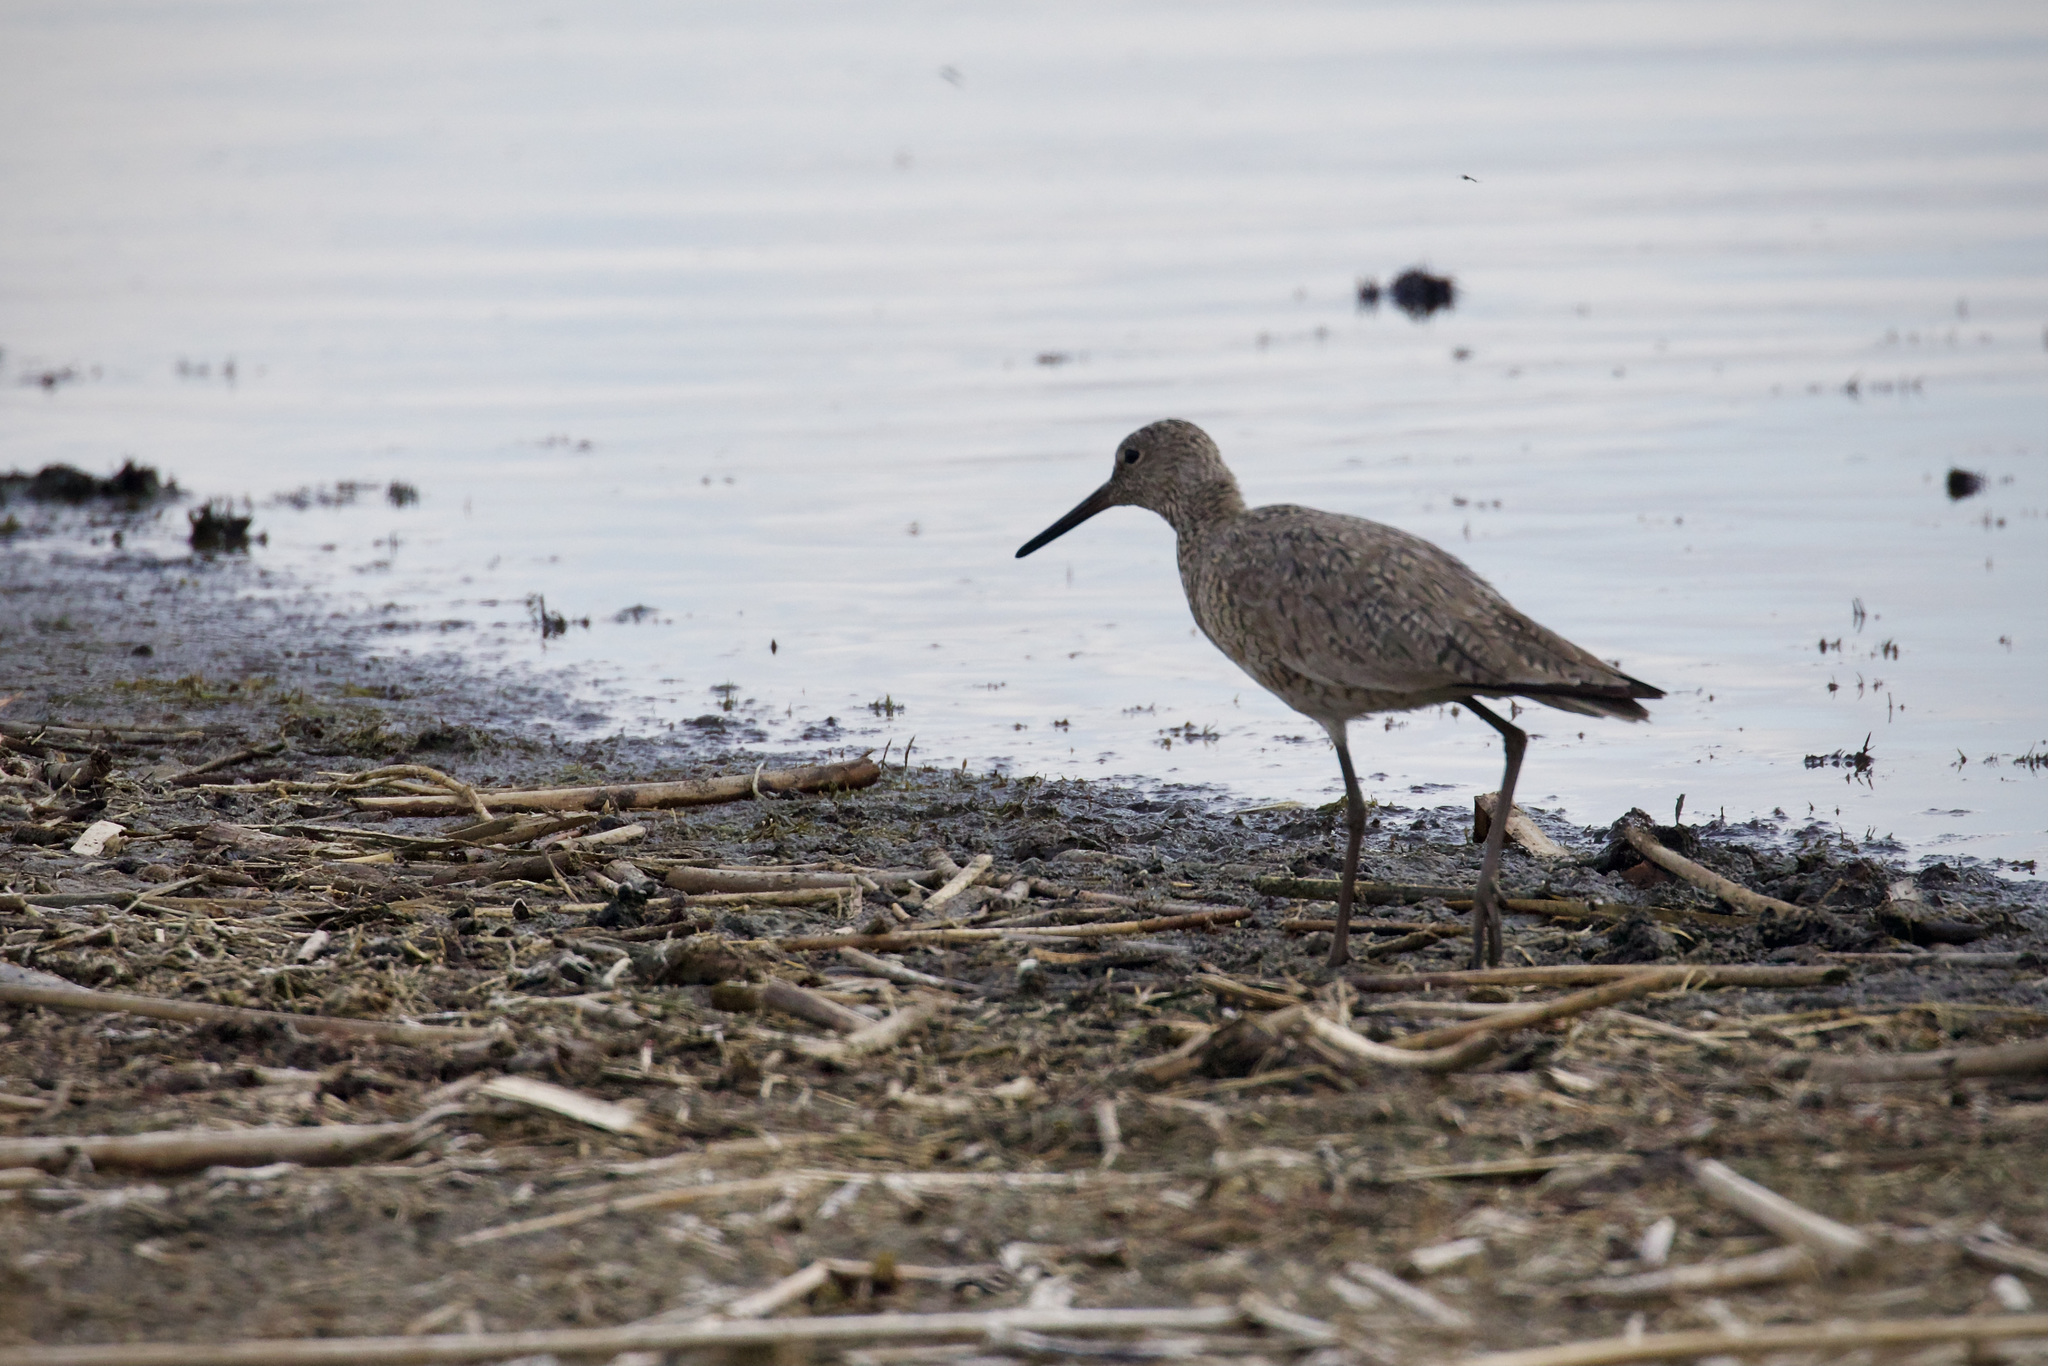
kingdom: Animalia
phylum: Chordata
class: Aves
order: Charadriiformes
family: Scolopacidae
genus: Tringa
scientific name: Tringa semipalmata
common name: Willet
